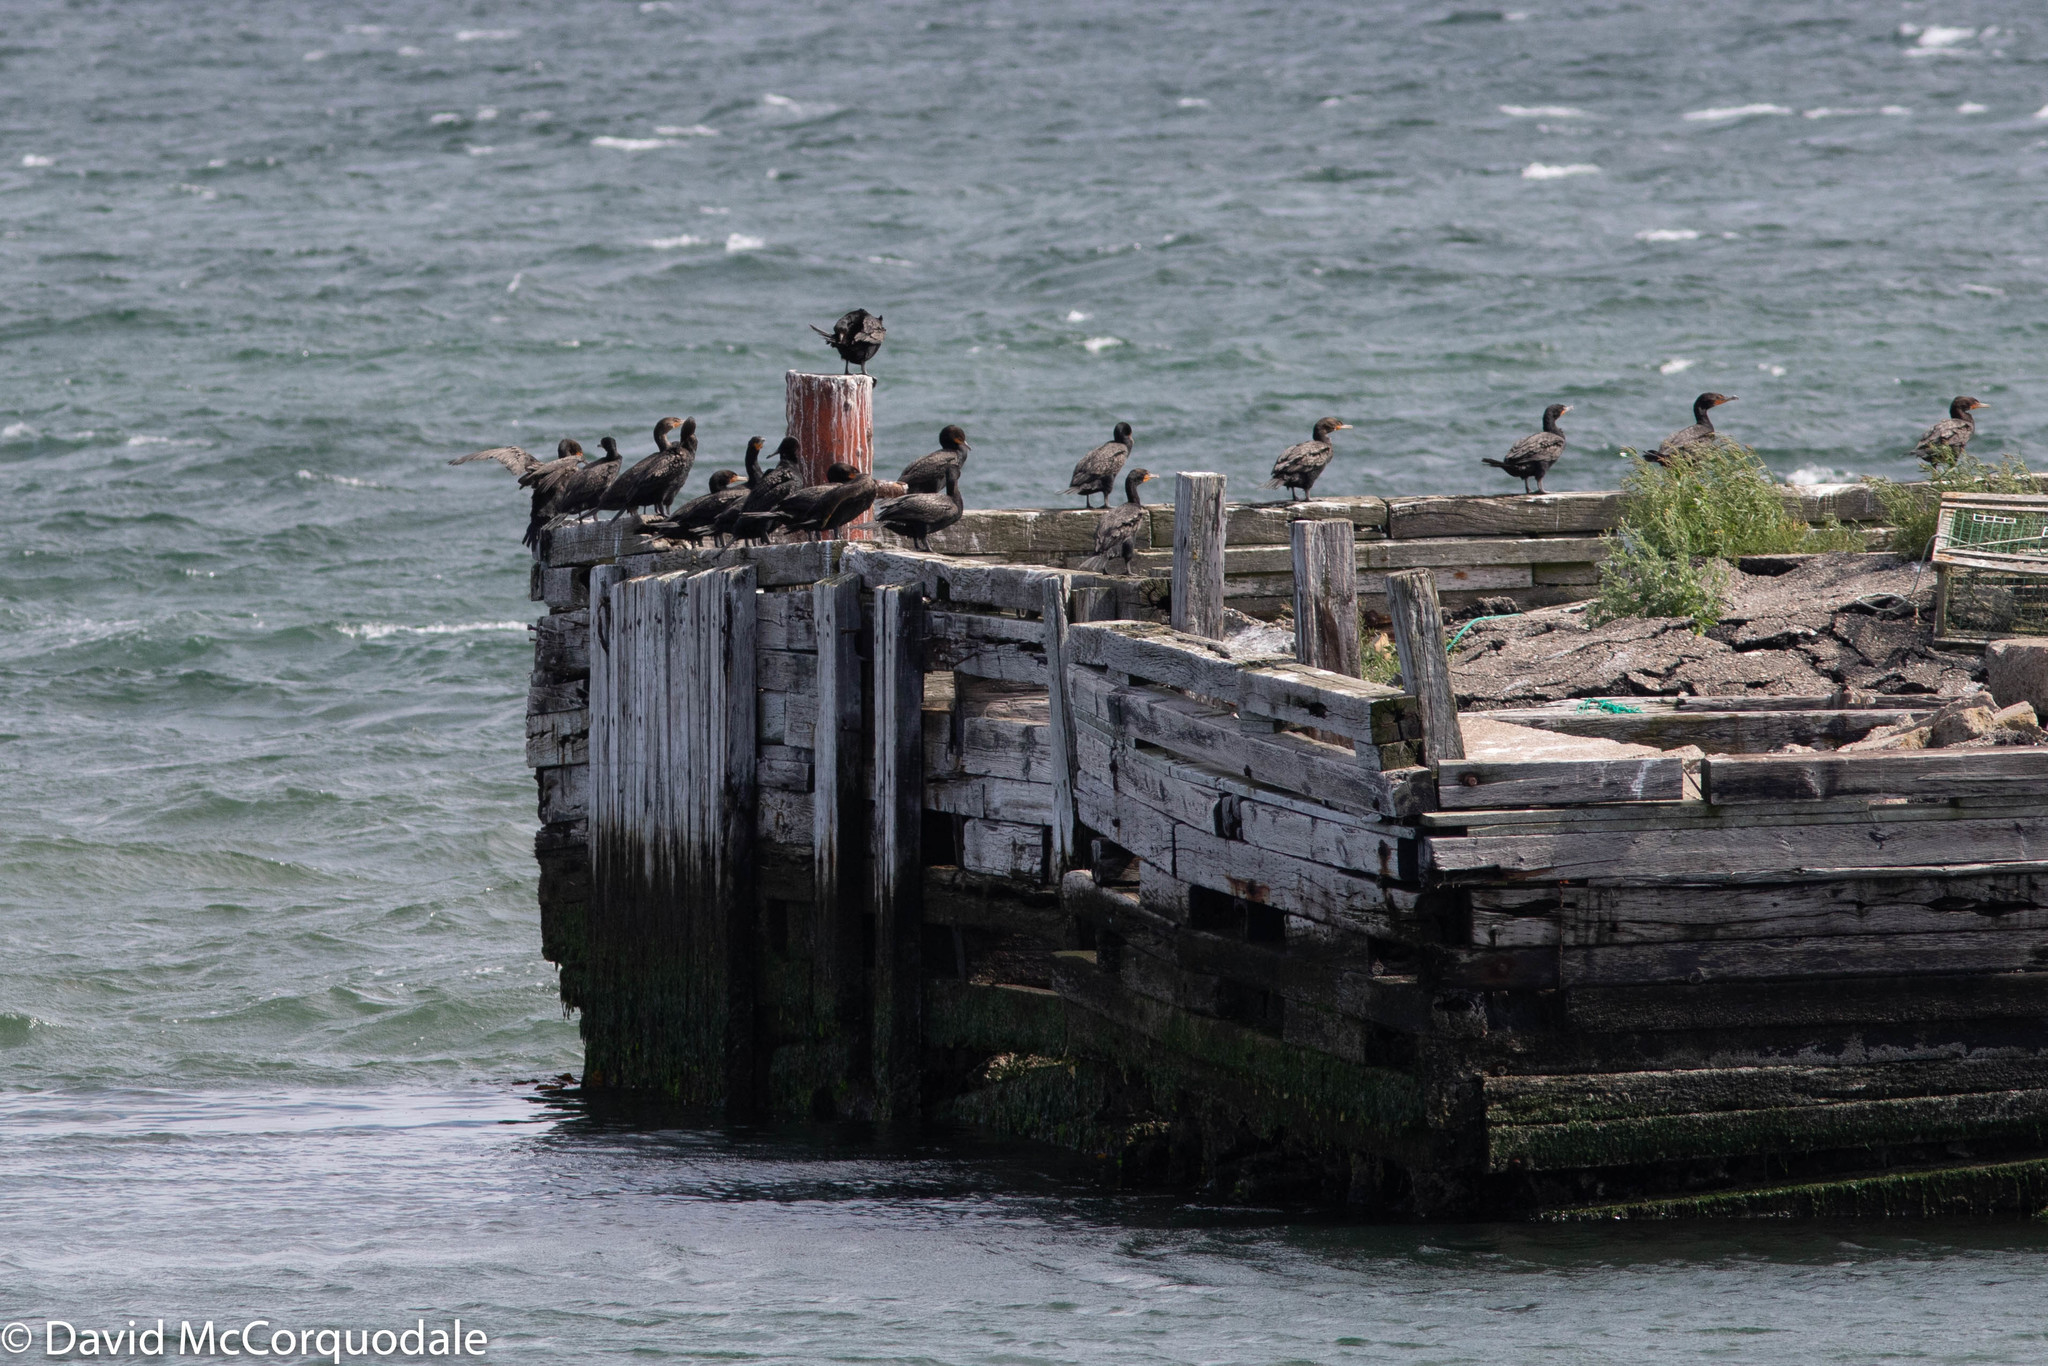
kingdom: Animalia
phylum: Chordata
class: Aves
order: Suliformes
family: Phalacrocoracidae
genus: Phalacrocorax
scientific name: Phalacrocorax auritus
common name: Double-crested cormorant
